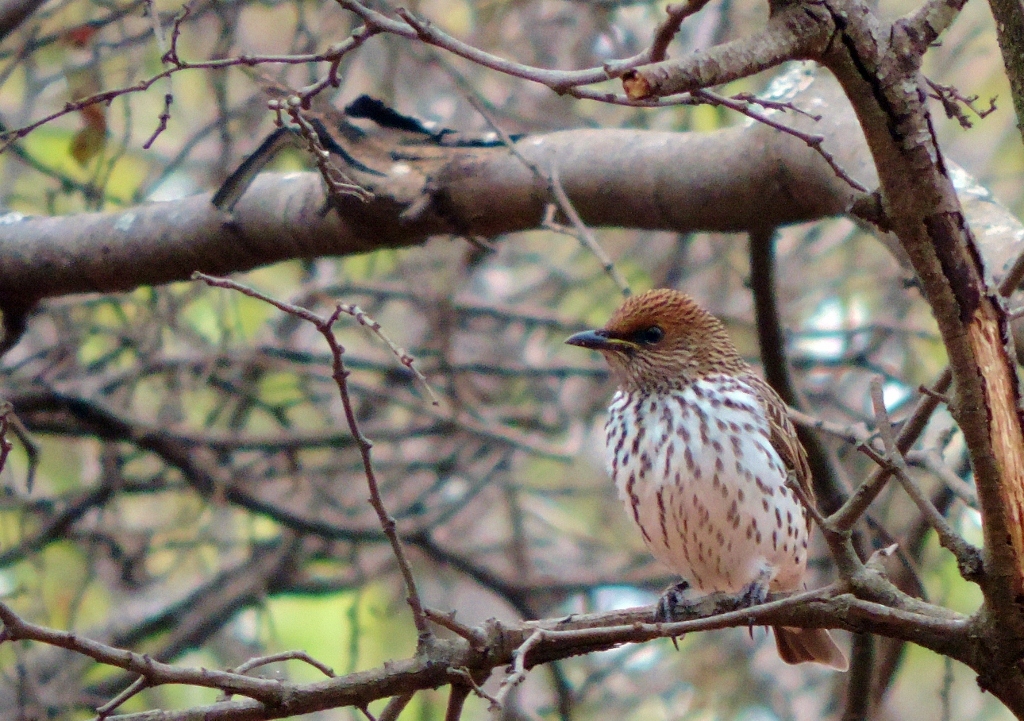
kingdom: Animalia
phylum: Chordata
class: Aves
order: Passeriformes
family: Sturnidae
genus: Cinnyricinclus
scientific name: Cinnyricinclus leucogaster
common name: Violet-backed starling
